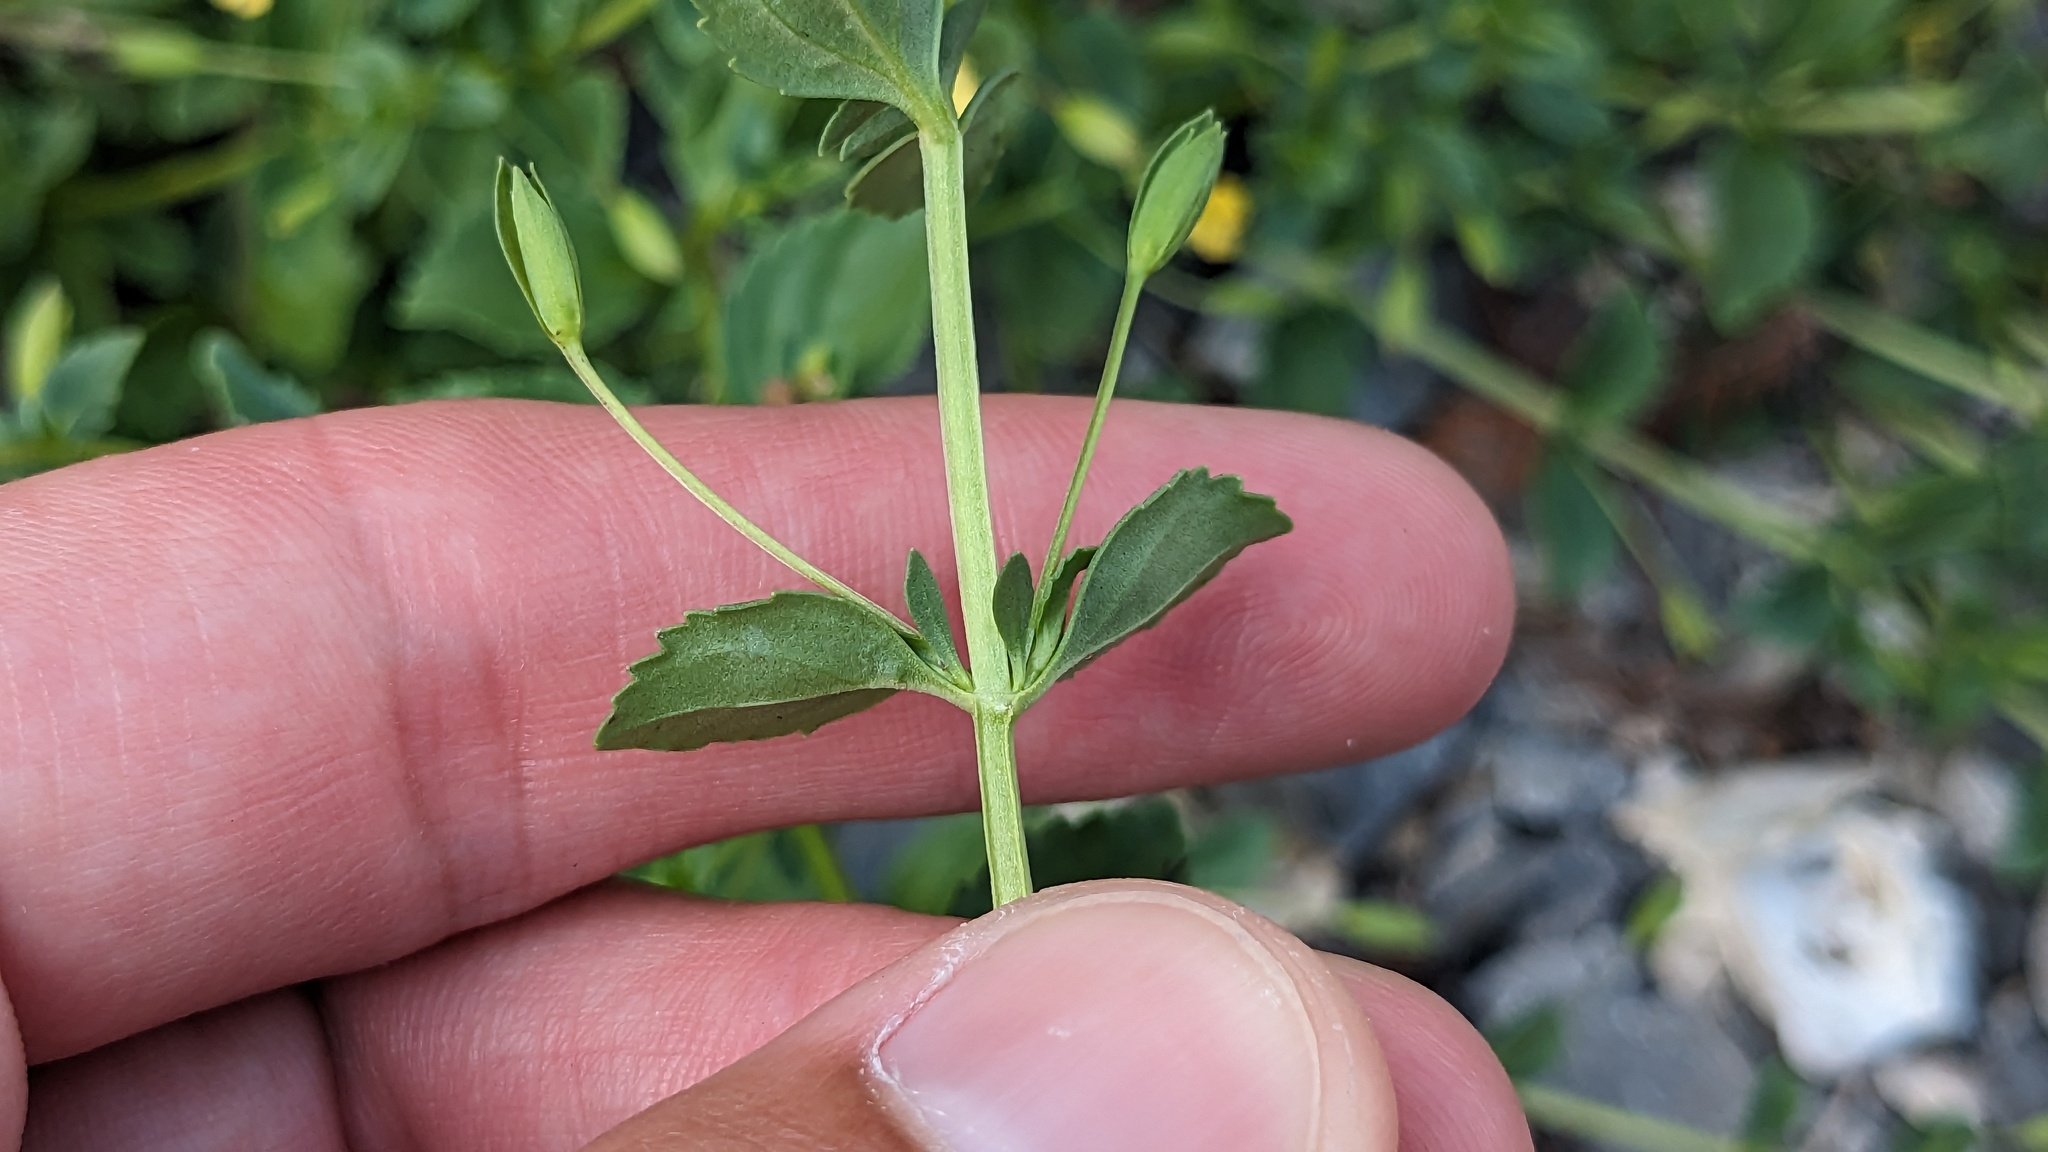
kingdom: Plantae
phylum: Tracheophyta
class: Magnoliopsida
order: Lamiales
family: Plantaginaceae
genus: Mecardonia
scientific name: Mecardonia procumbens
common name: Baby jump-up
